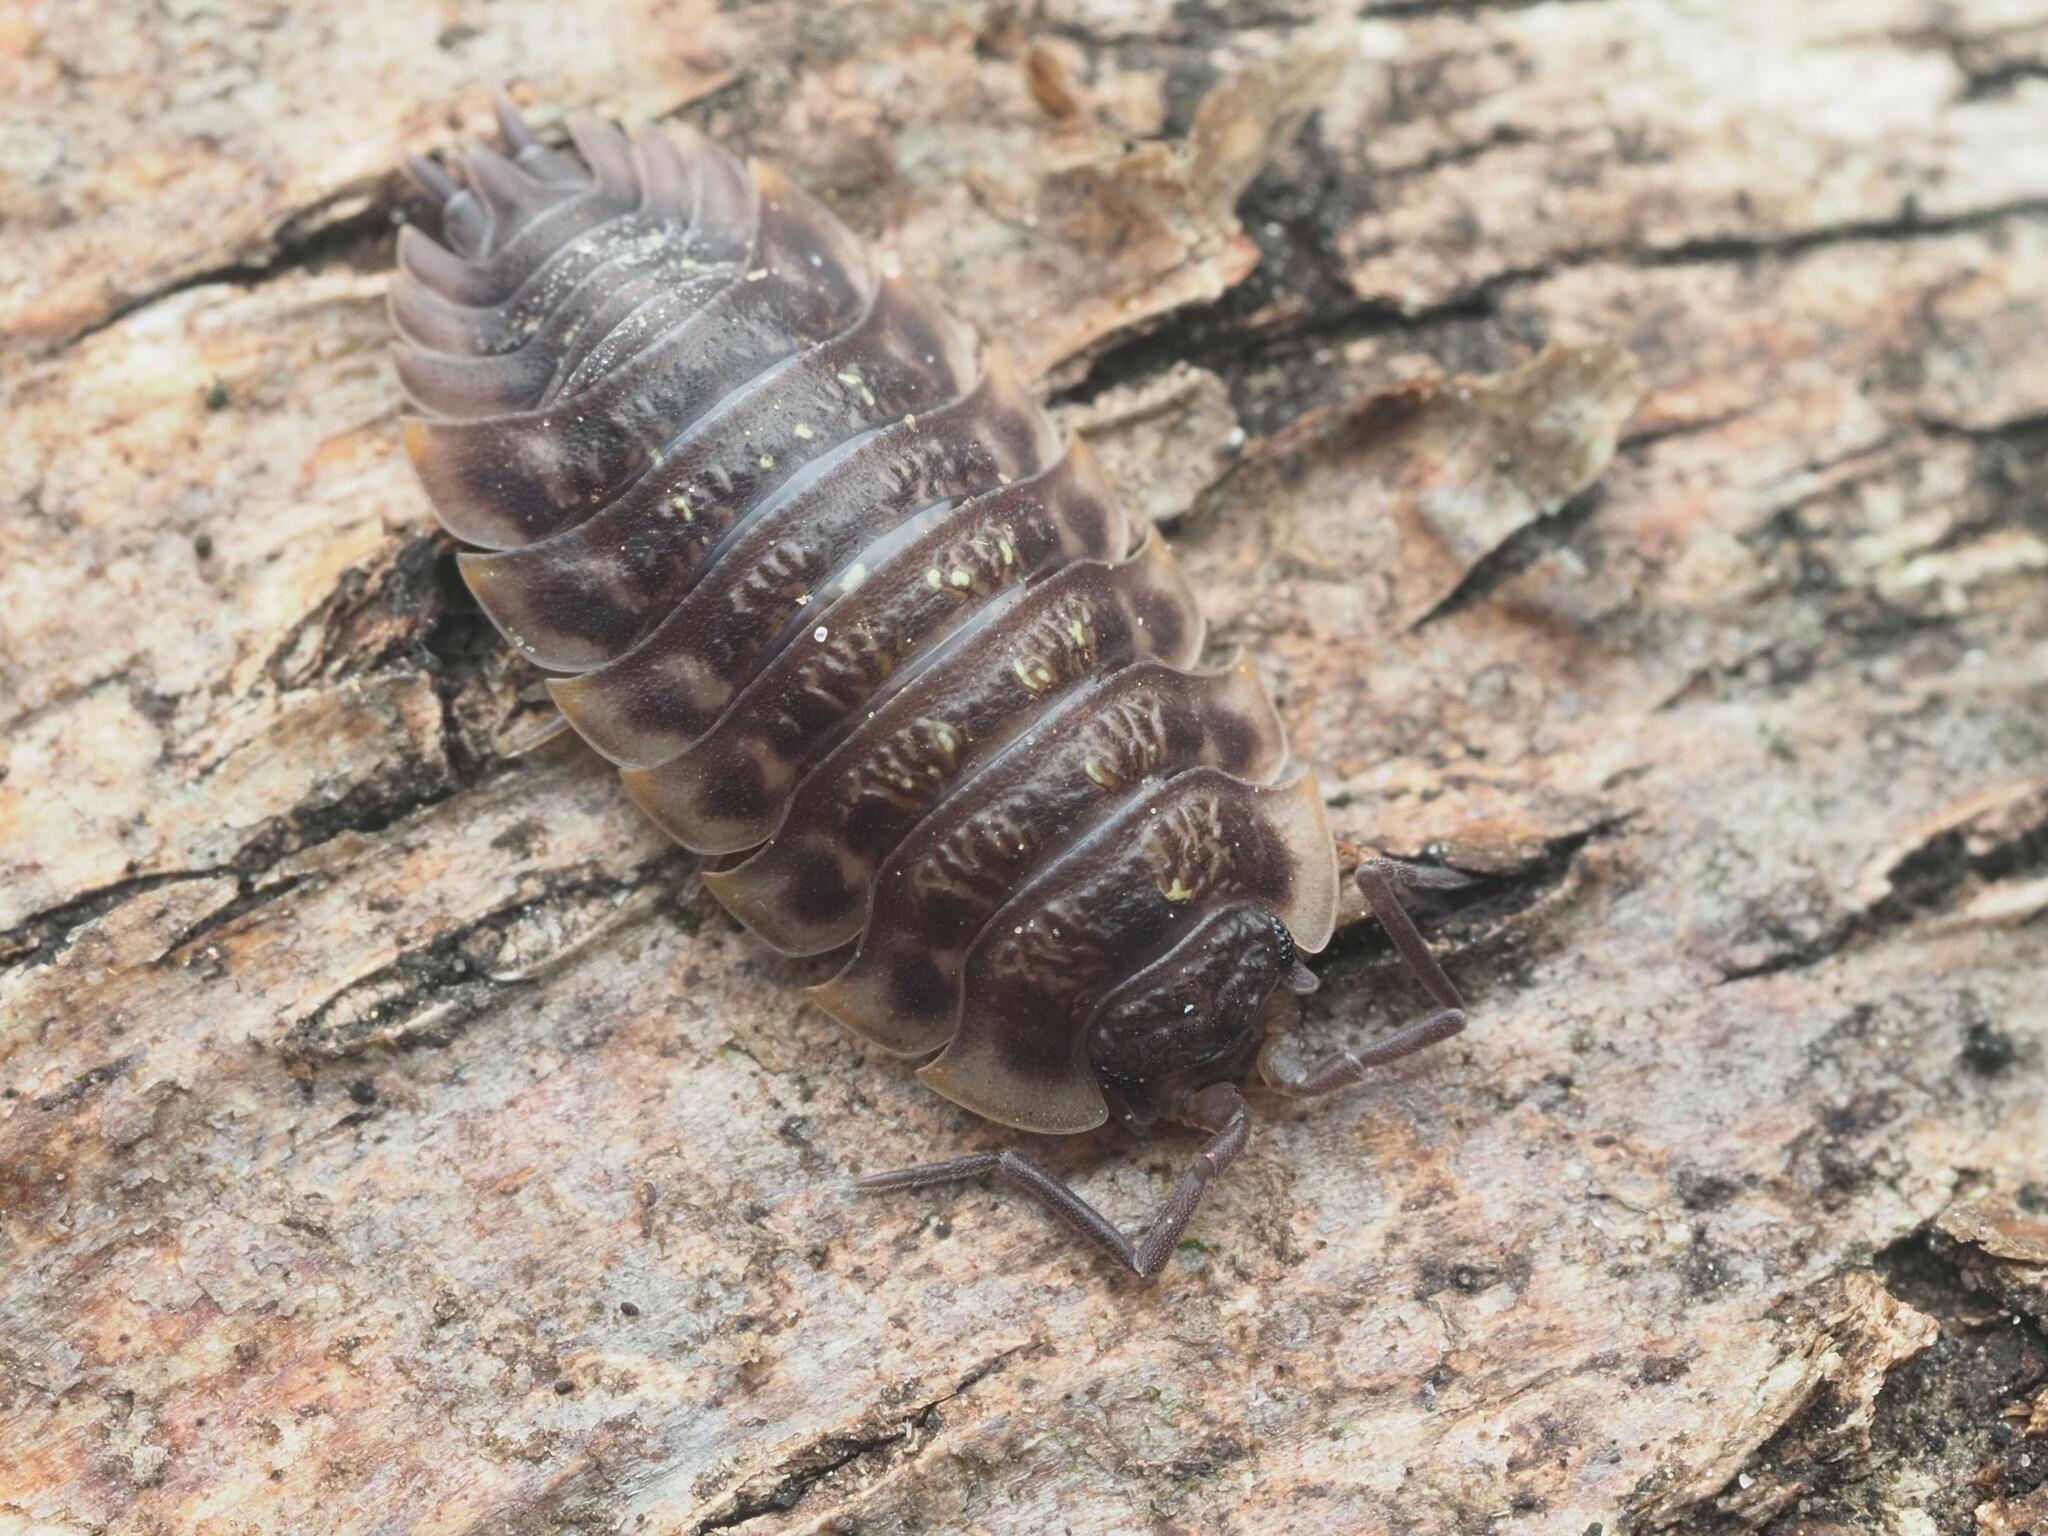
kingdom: Animalia
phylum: Arthropoda
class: Malacostraca
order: Isopoda
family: Oniscidae
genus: Oniscus
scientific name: Oniscus asellus
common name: Common shiny woodlouse
